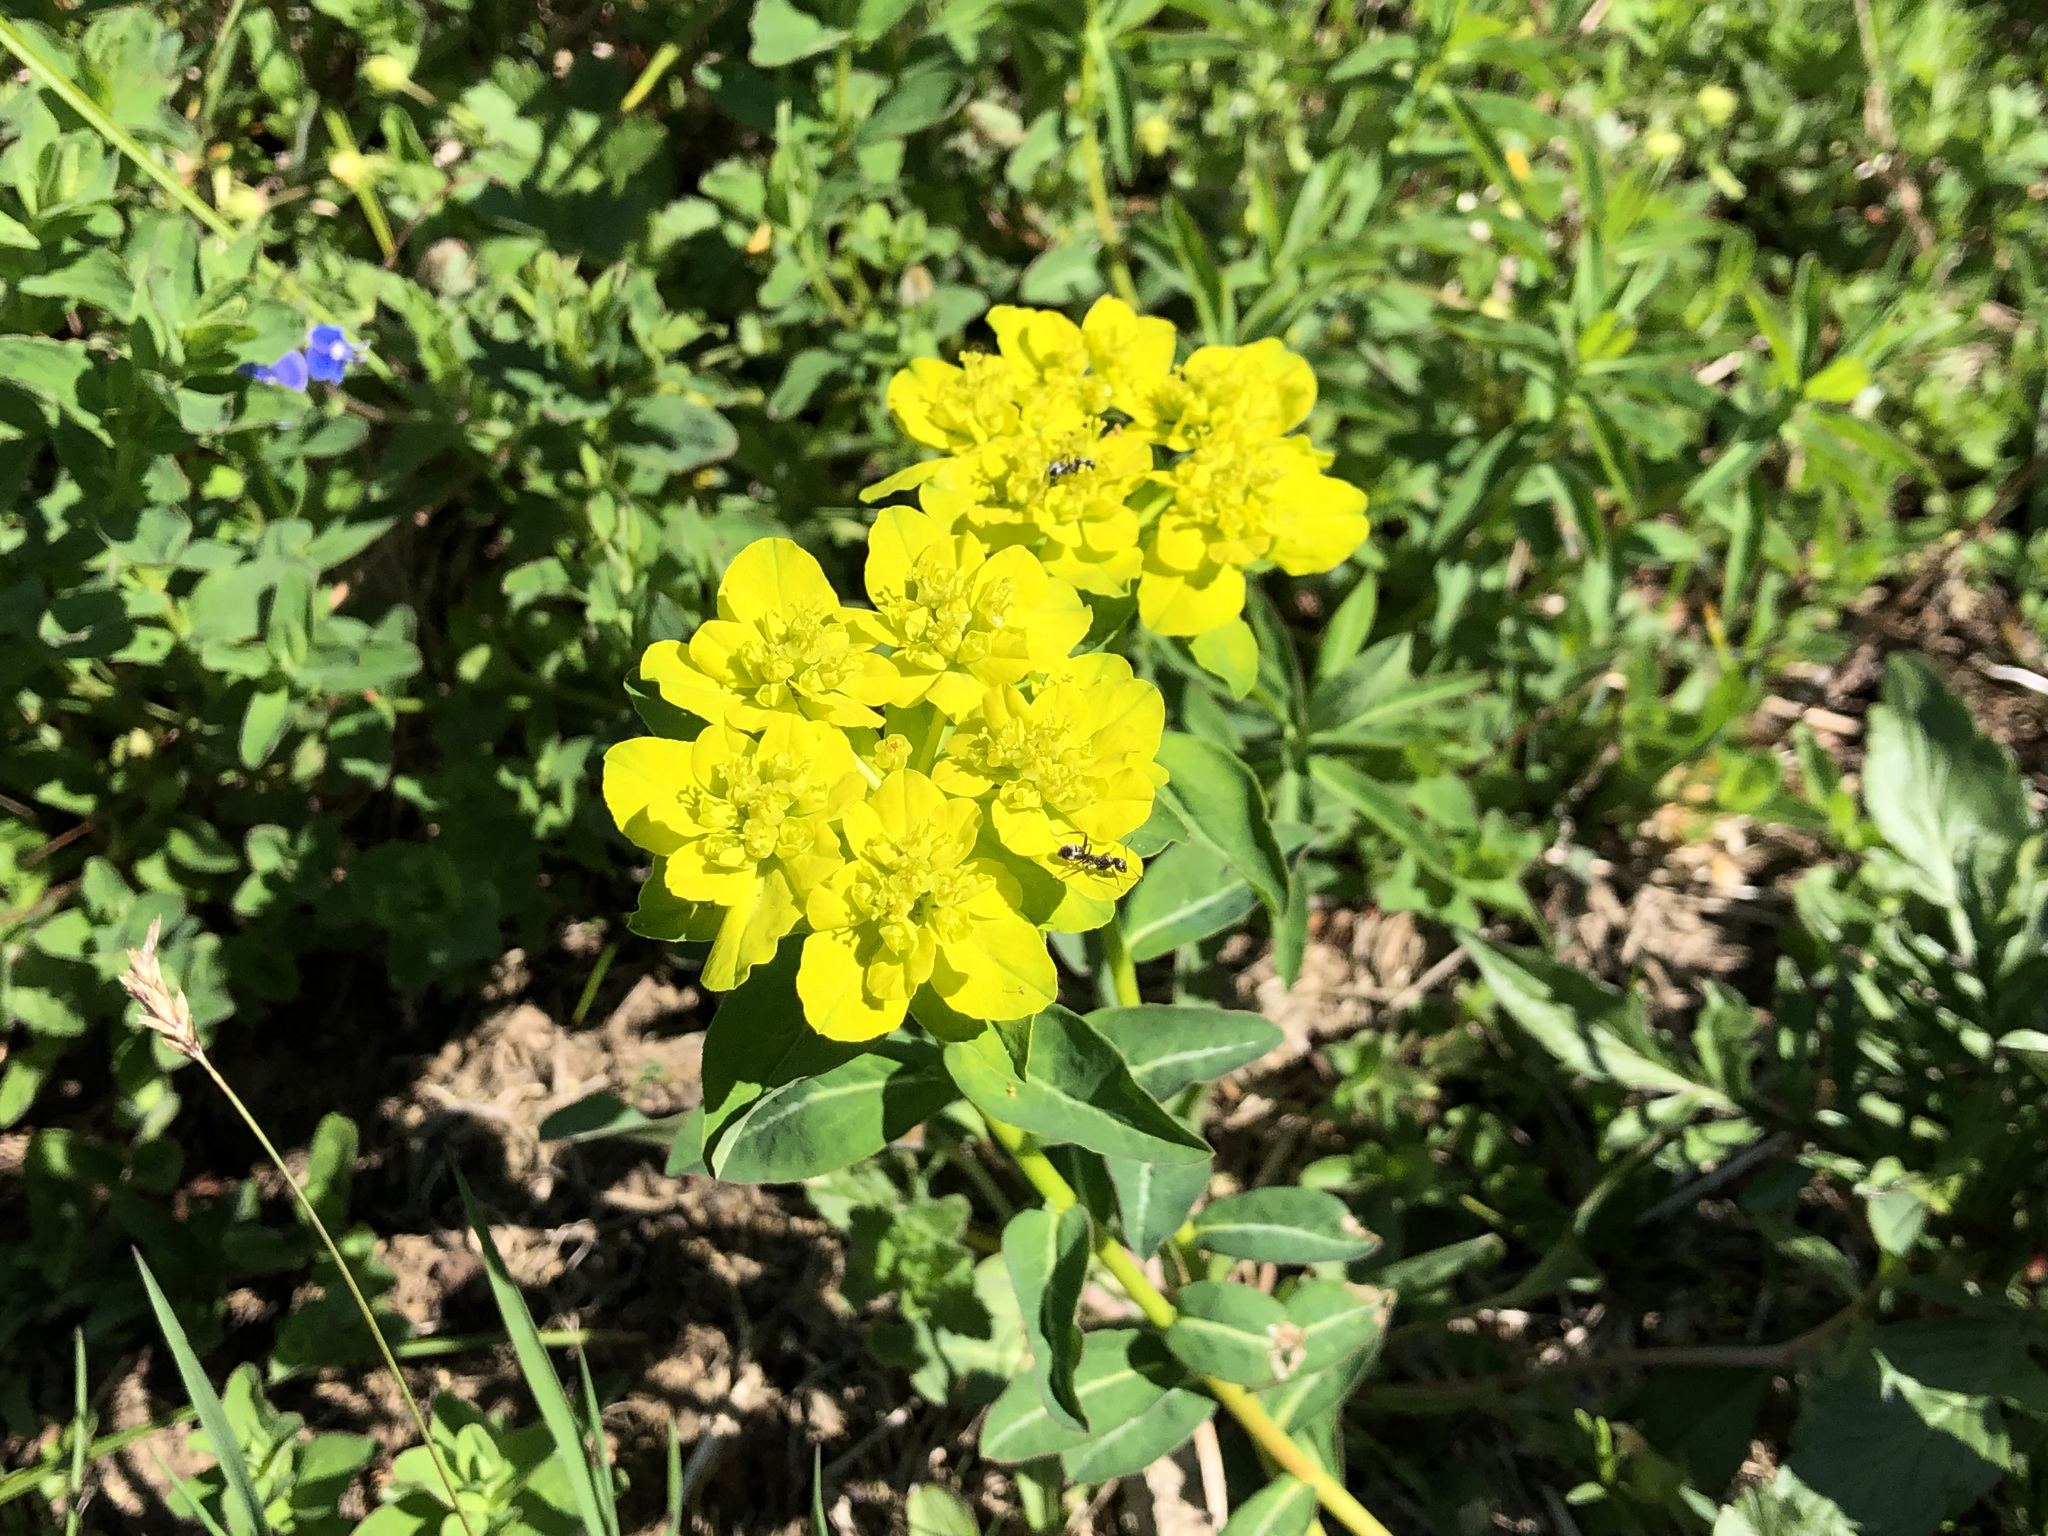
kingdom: Plantae
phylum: Tracheophyta
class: Magnoliopsida
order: Malpighiales
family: Euphorbiaceae
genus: Euphorbia
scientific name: Euphorbia verrucosa
